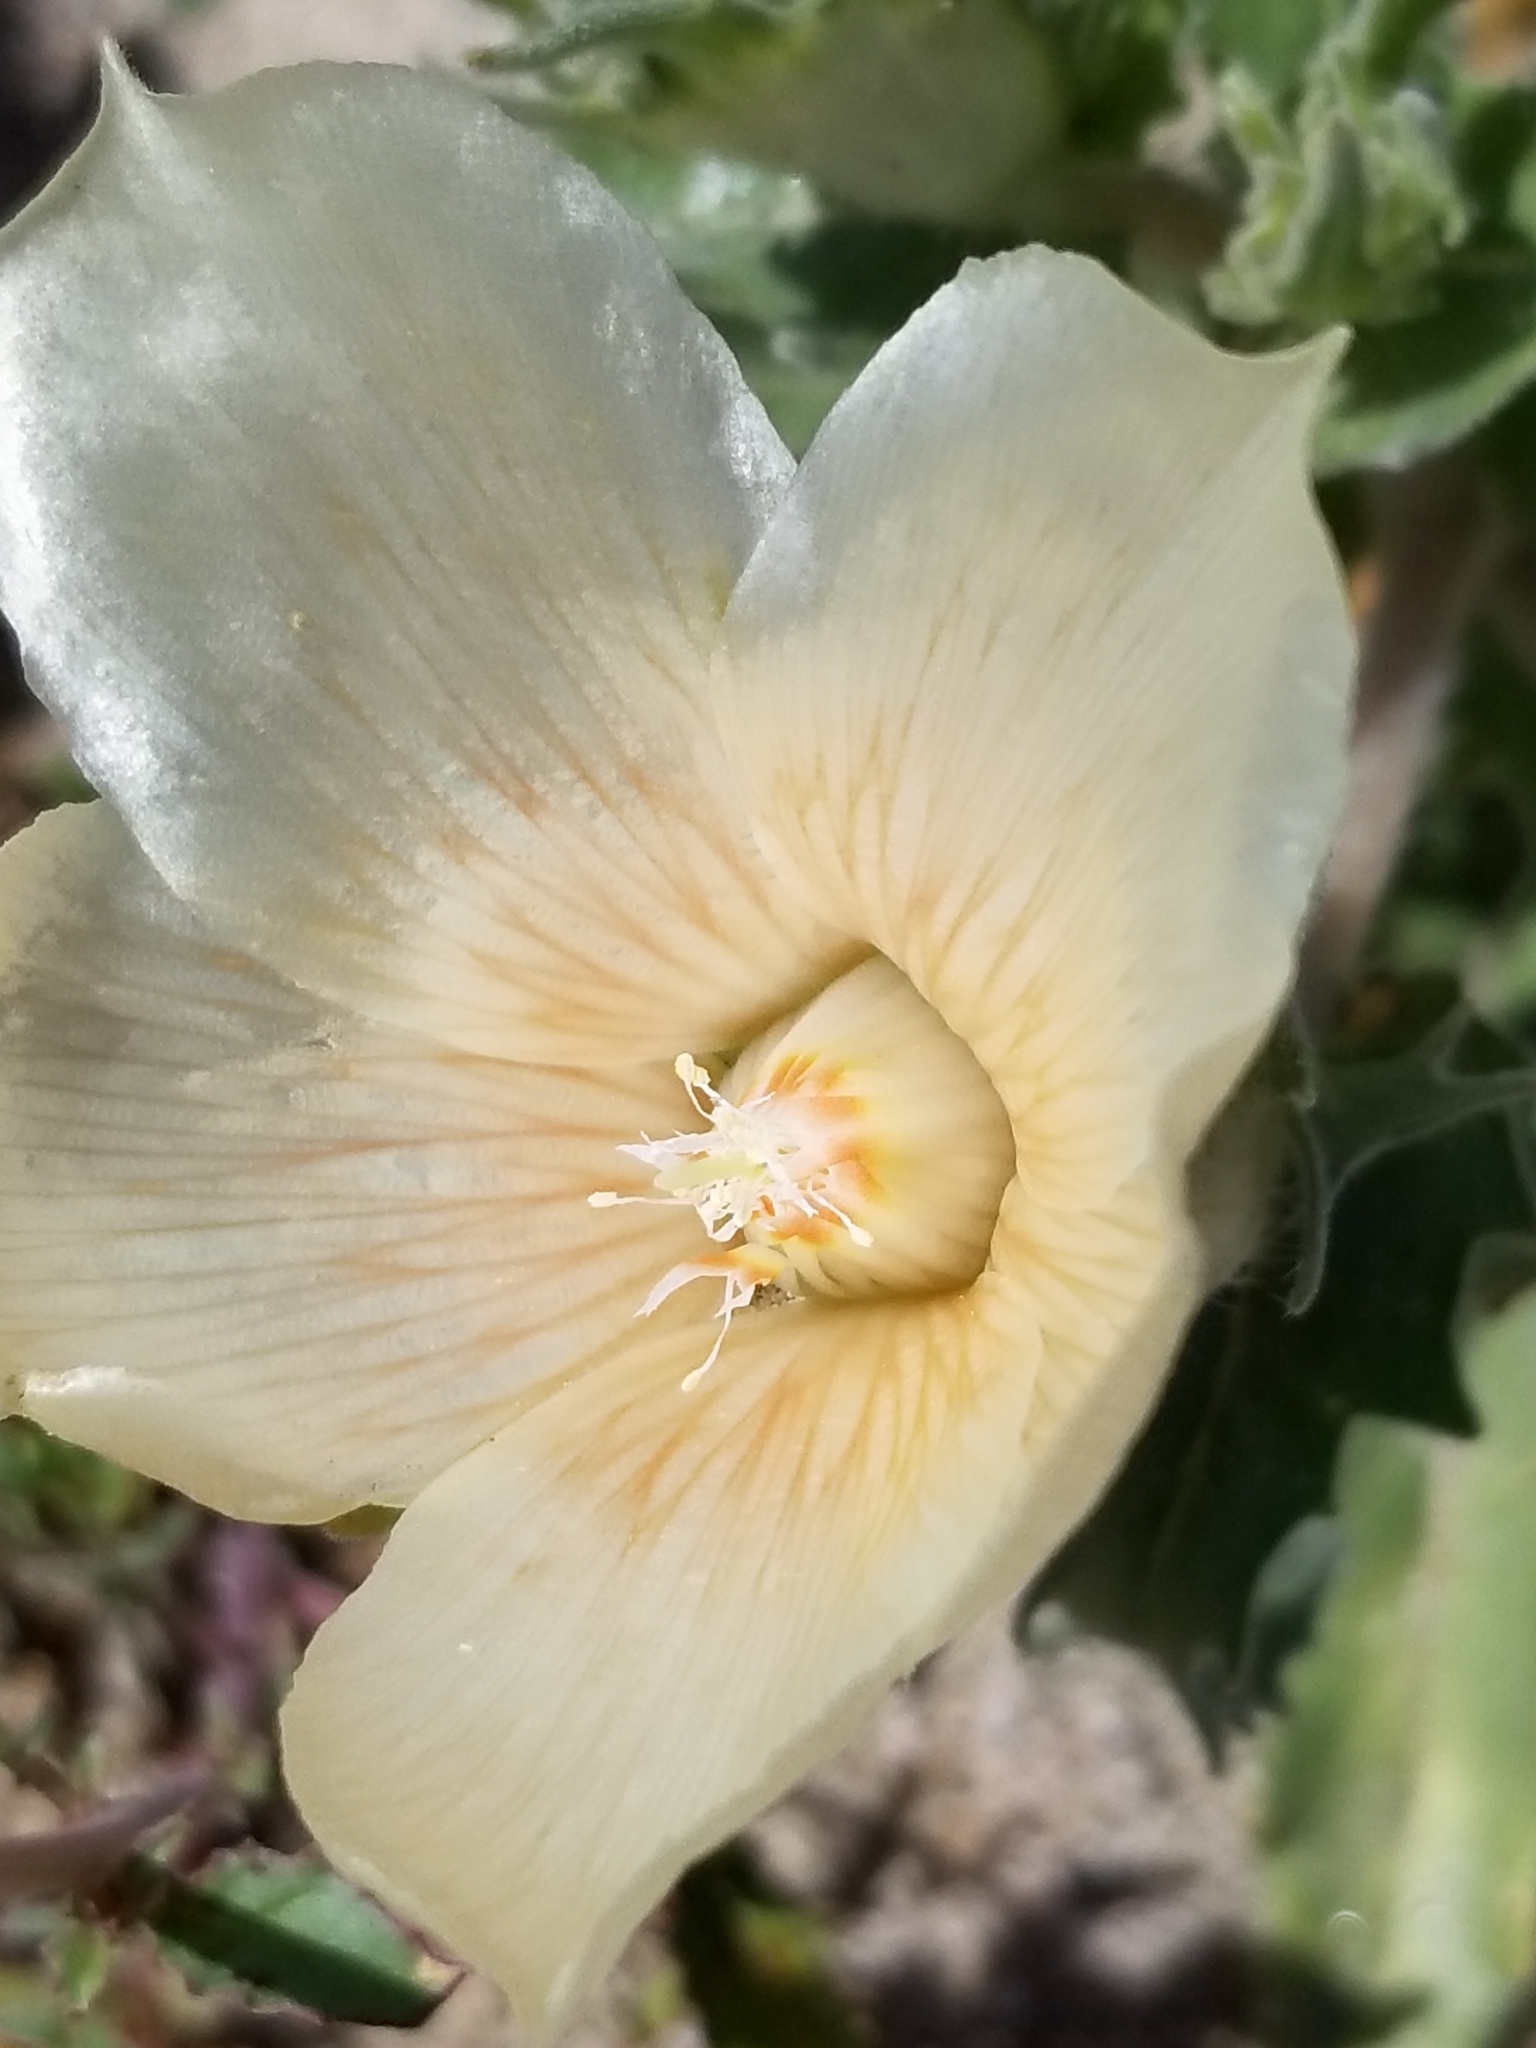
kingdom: Plantae
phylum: Tracheophyta
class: Magnoliopsida
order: Cornales
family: Loasaceae
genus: Mentzelia
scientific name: Mentzelia involucrata
